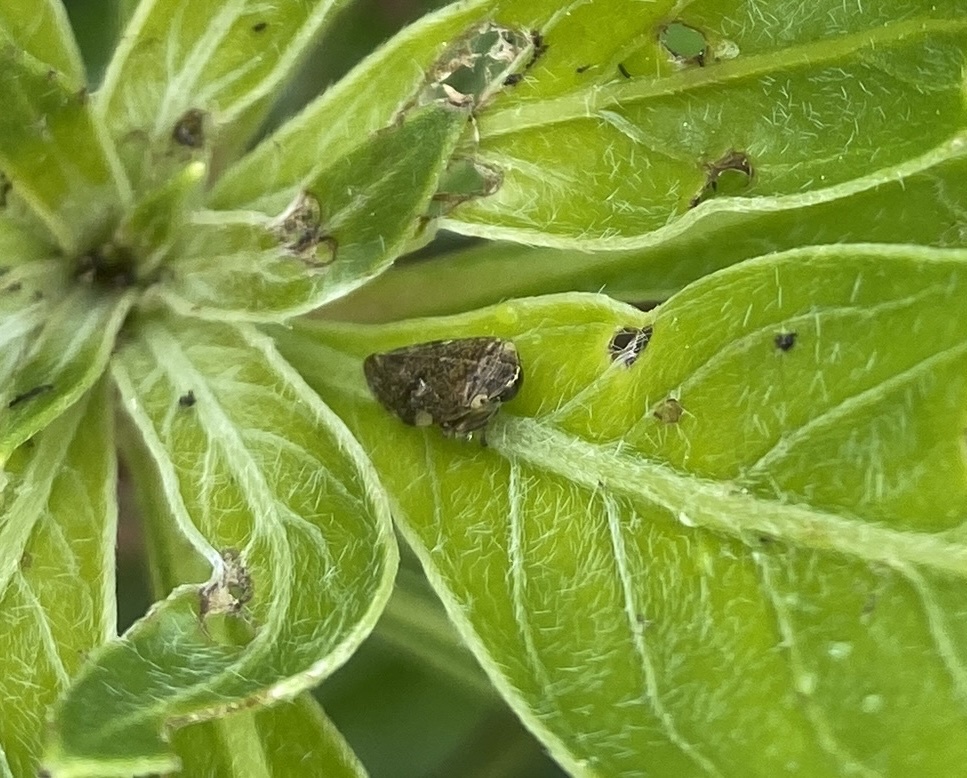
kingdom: Animalia
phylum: Arthropoda
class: Insecta
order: Hemiptera
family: Aphrophoridae
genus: Philaenus
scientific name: Philaenus spumarius
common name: Meadow spittlebug
